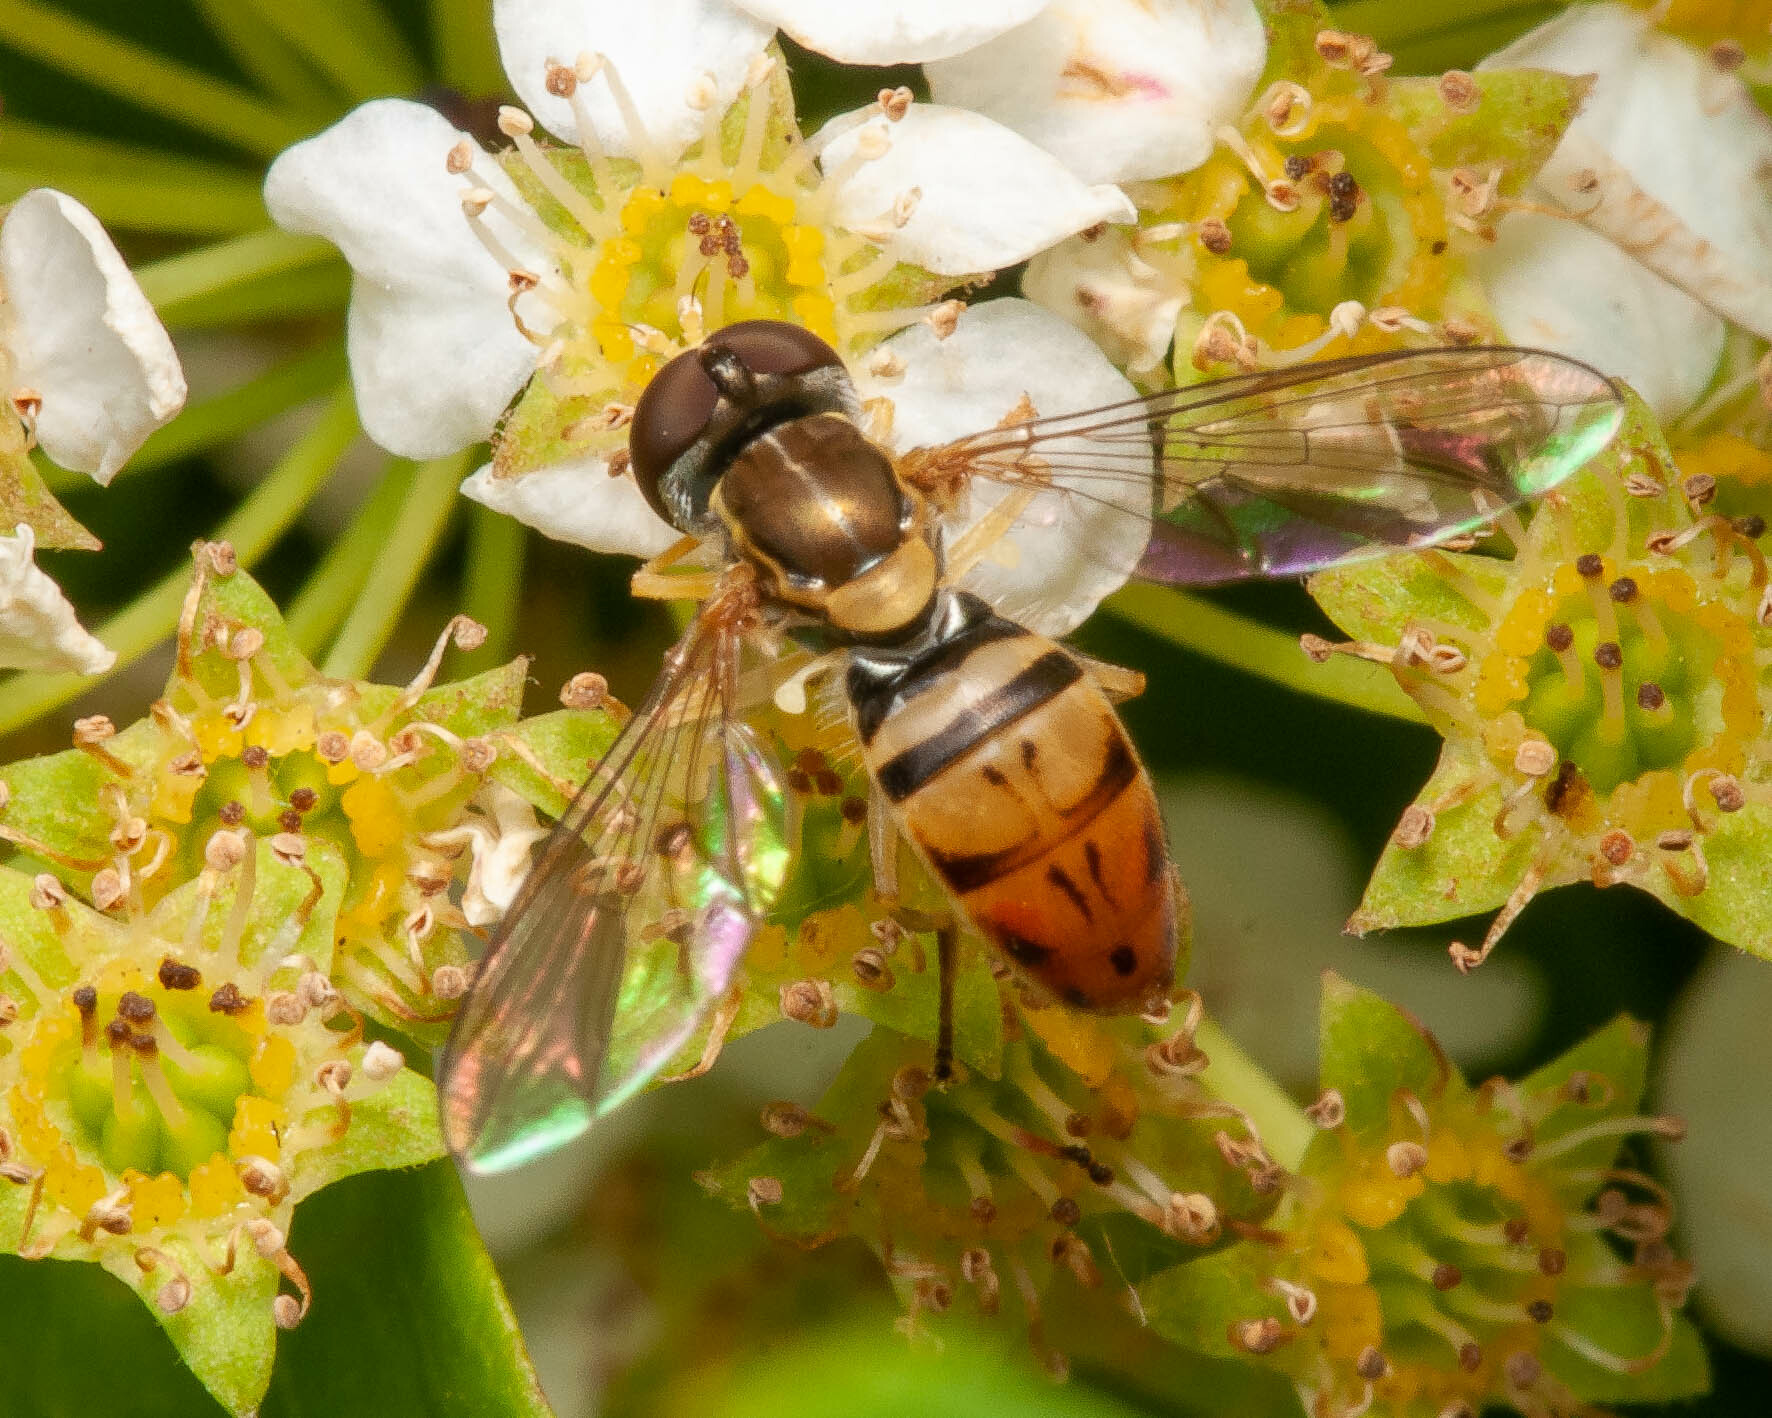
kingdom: Animalia
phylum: Arthropoda
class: Insecta
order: Diptera
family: Syrphidae
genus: Toxomerus
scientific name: Toxomerus marginatus
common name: Syrphid fly
